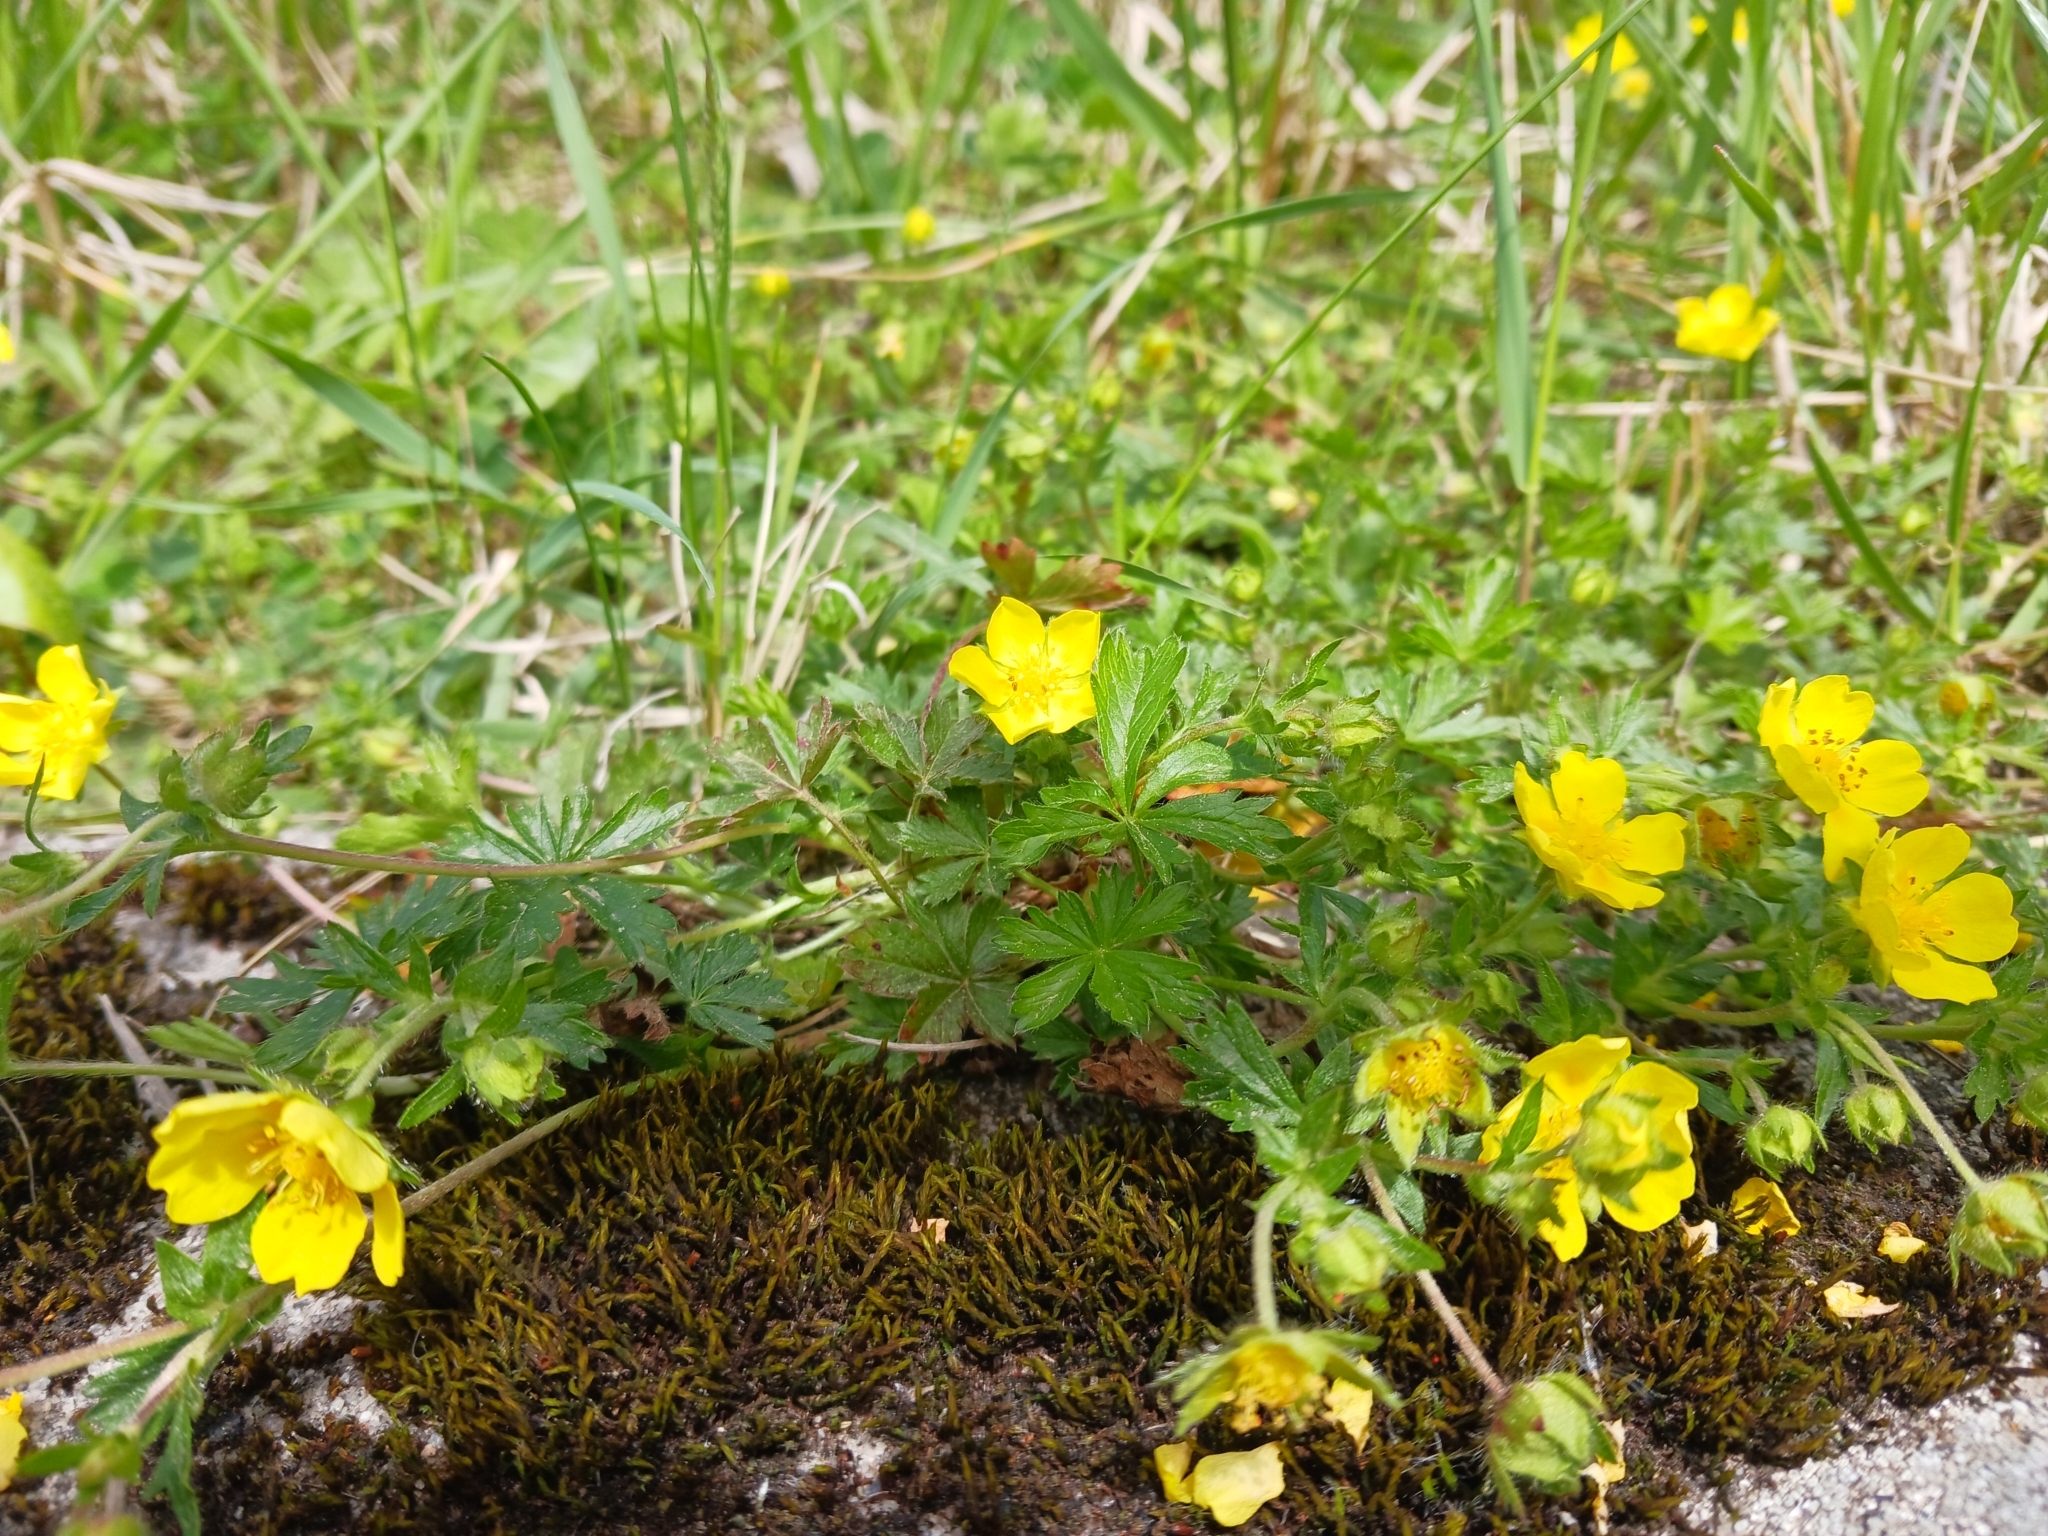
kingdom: Plantae
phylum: Tracheophyta
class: Magnoliopsida
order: Rosales
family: Rosaceae
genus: Potentilla
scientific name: Potentilla verna
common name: Spring cinquefoil
